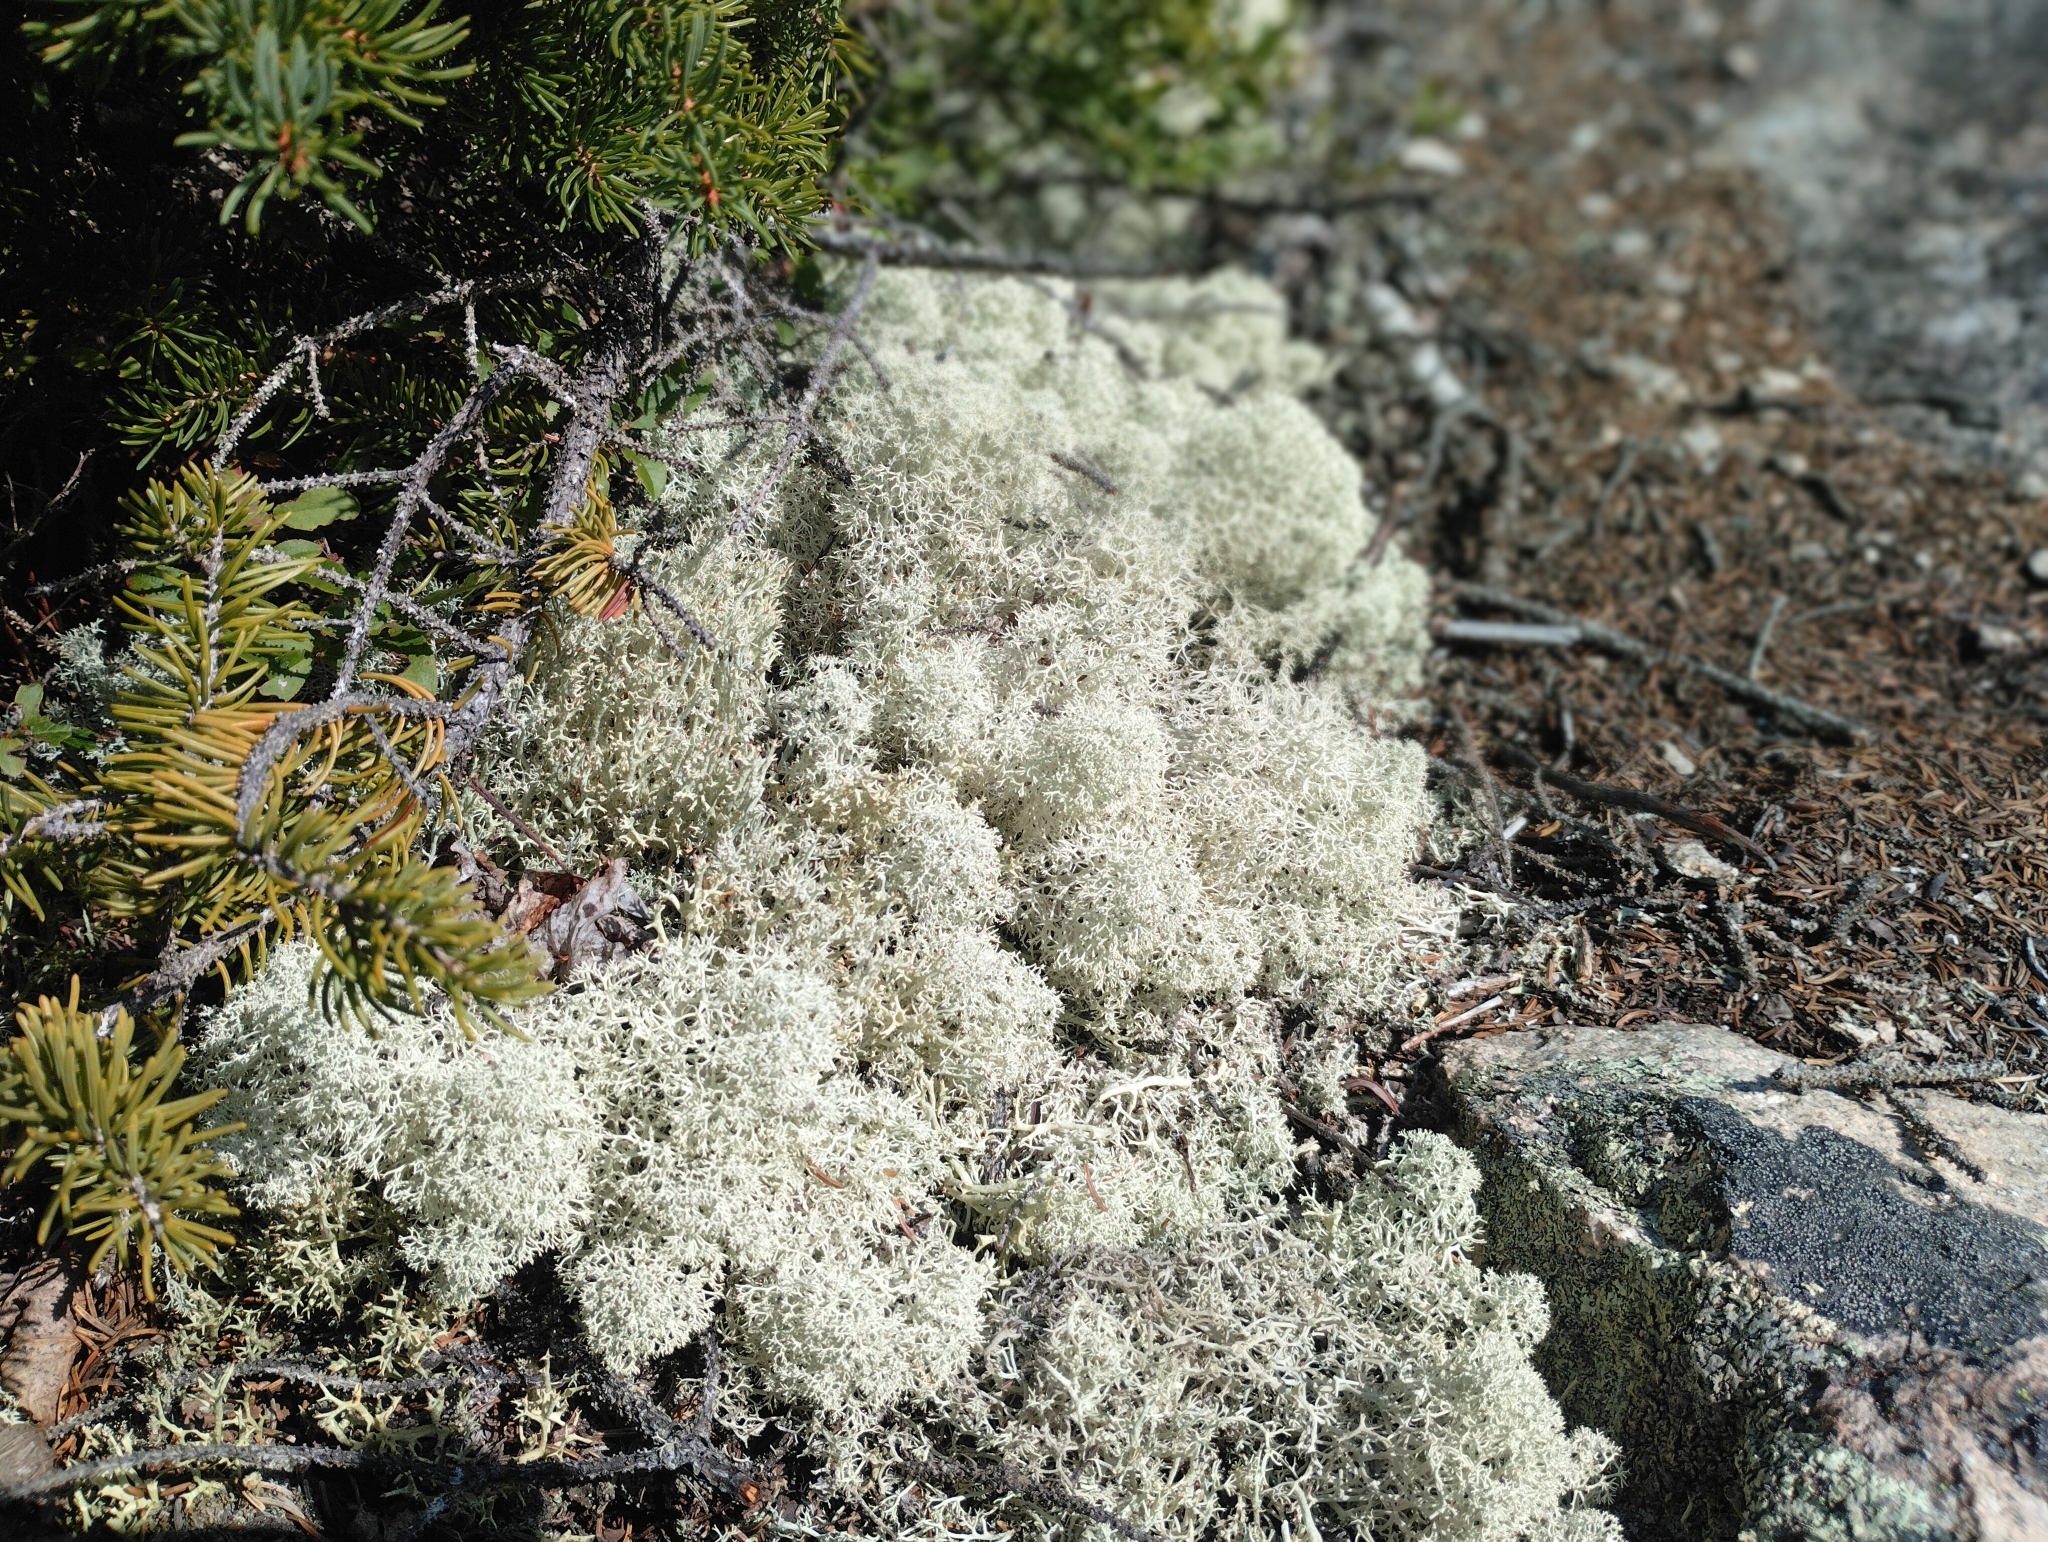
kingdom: Fungi
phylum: Ascomycota
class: Lecanoromycetes
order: Lecanorales
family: Cladoniaceae
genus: Cladonia
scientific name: Cladonia stellaris
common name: Star-tipped reindeer lichen
